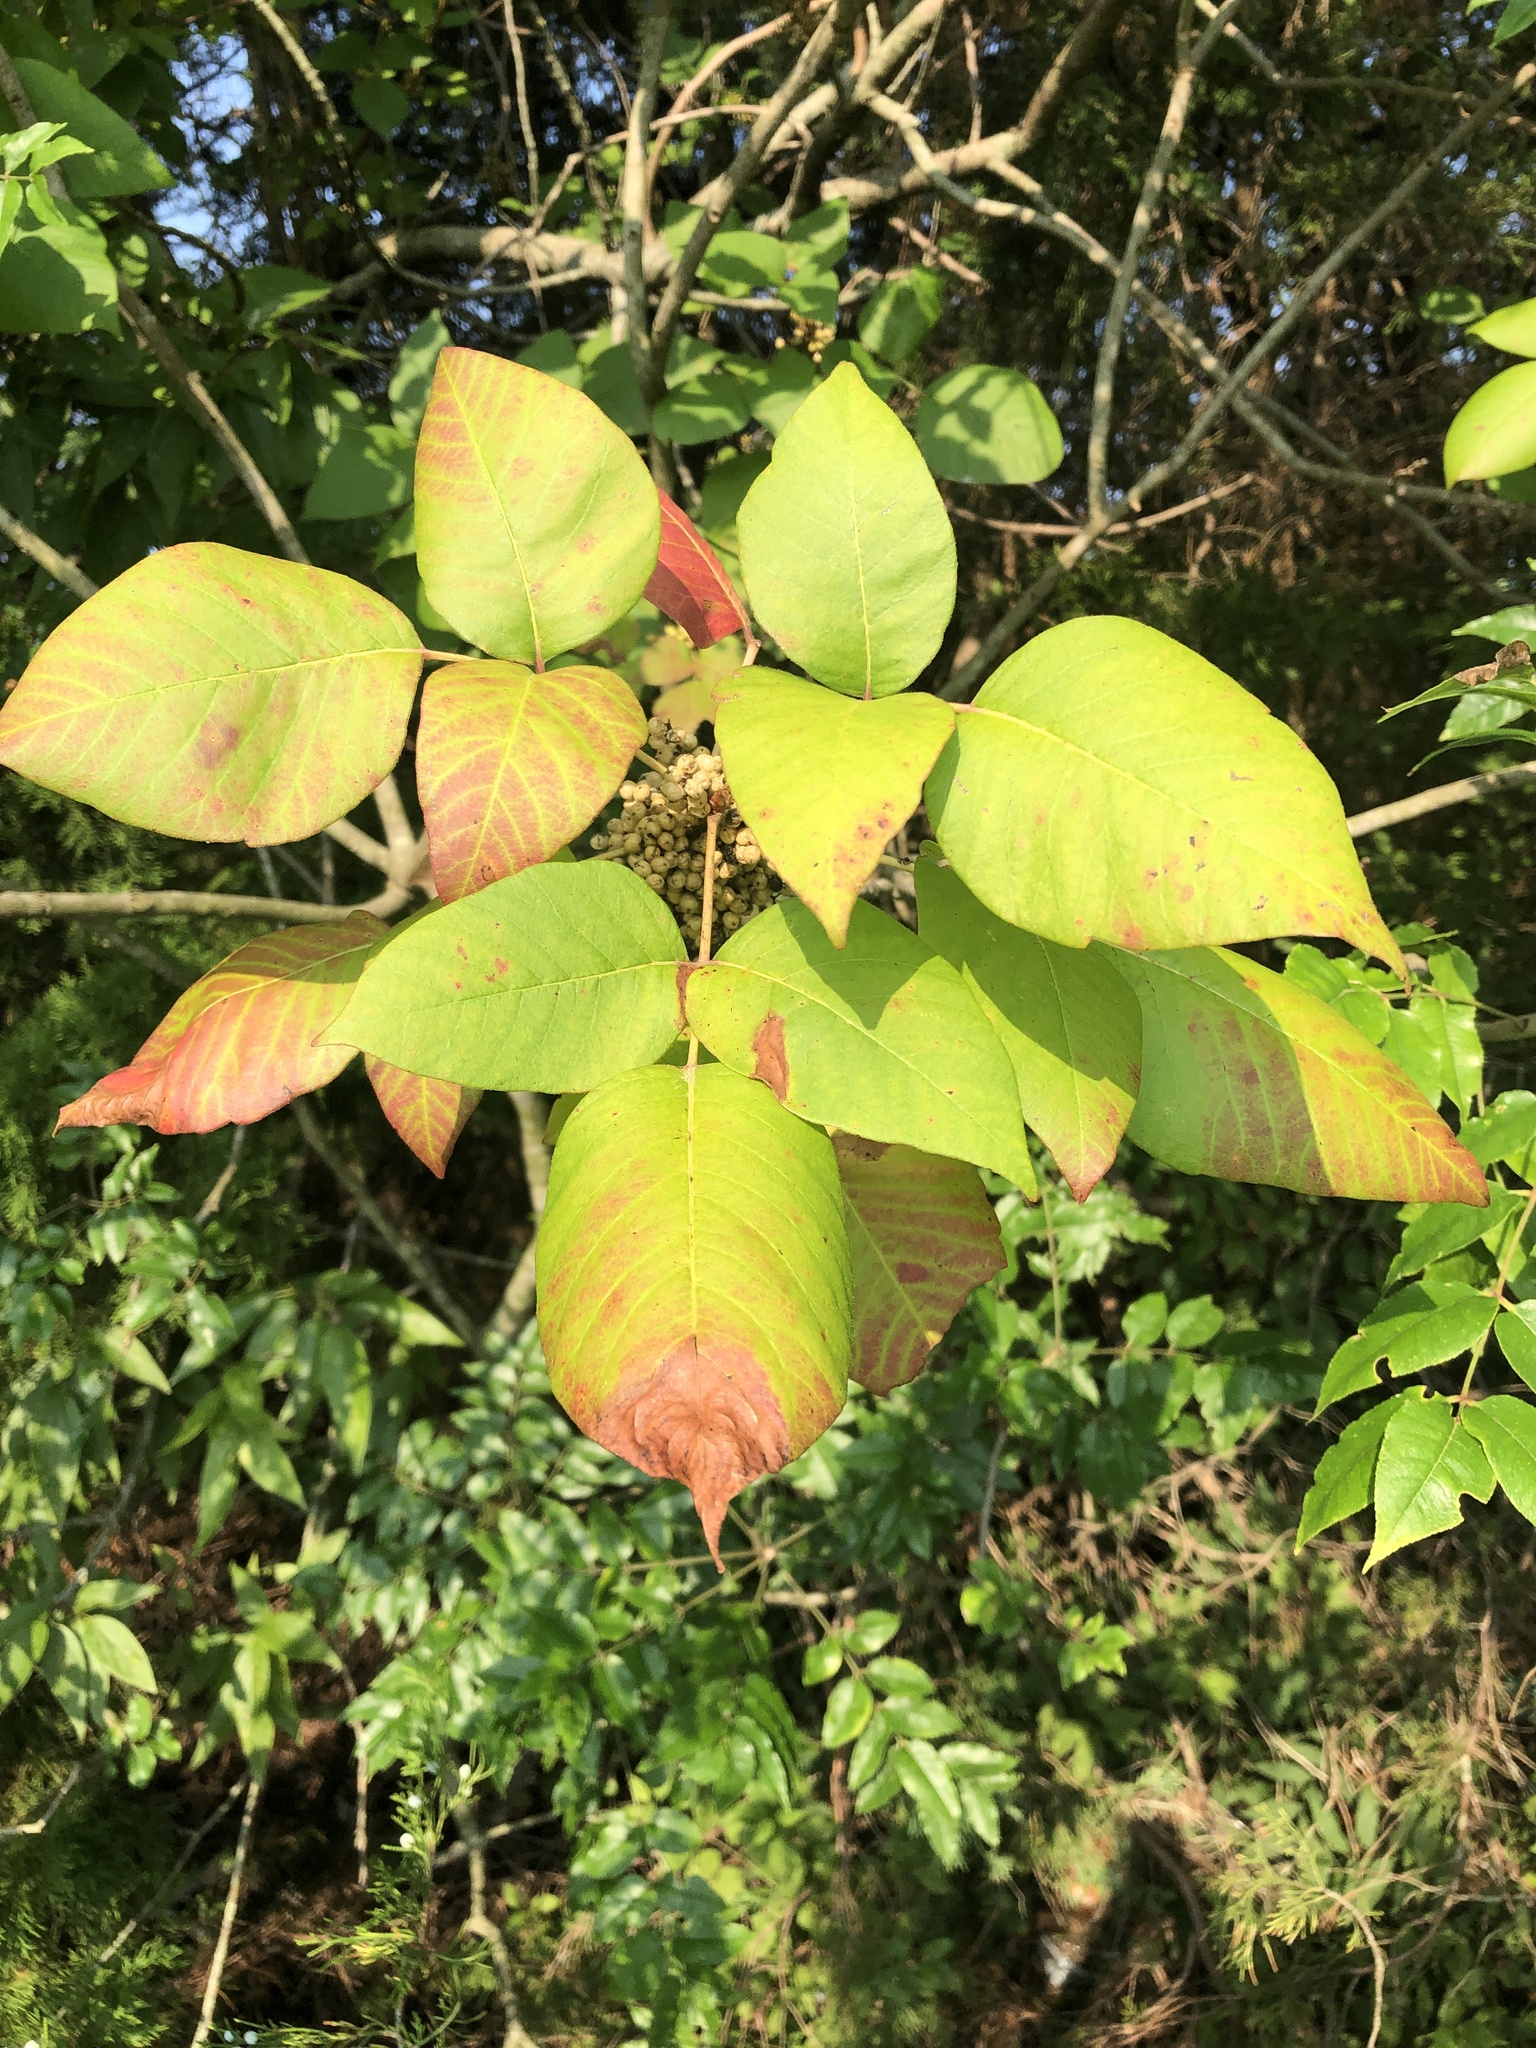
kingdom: Plantae
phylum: Tracheophyta
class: Magnoliopsida
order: Sapindales
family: Anacardiaceae
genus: Toxicodendron
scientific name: Toxicodendron radicans
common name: Poison ivy
